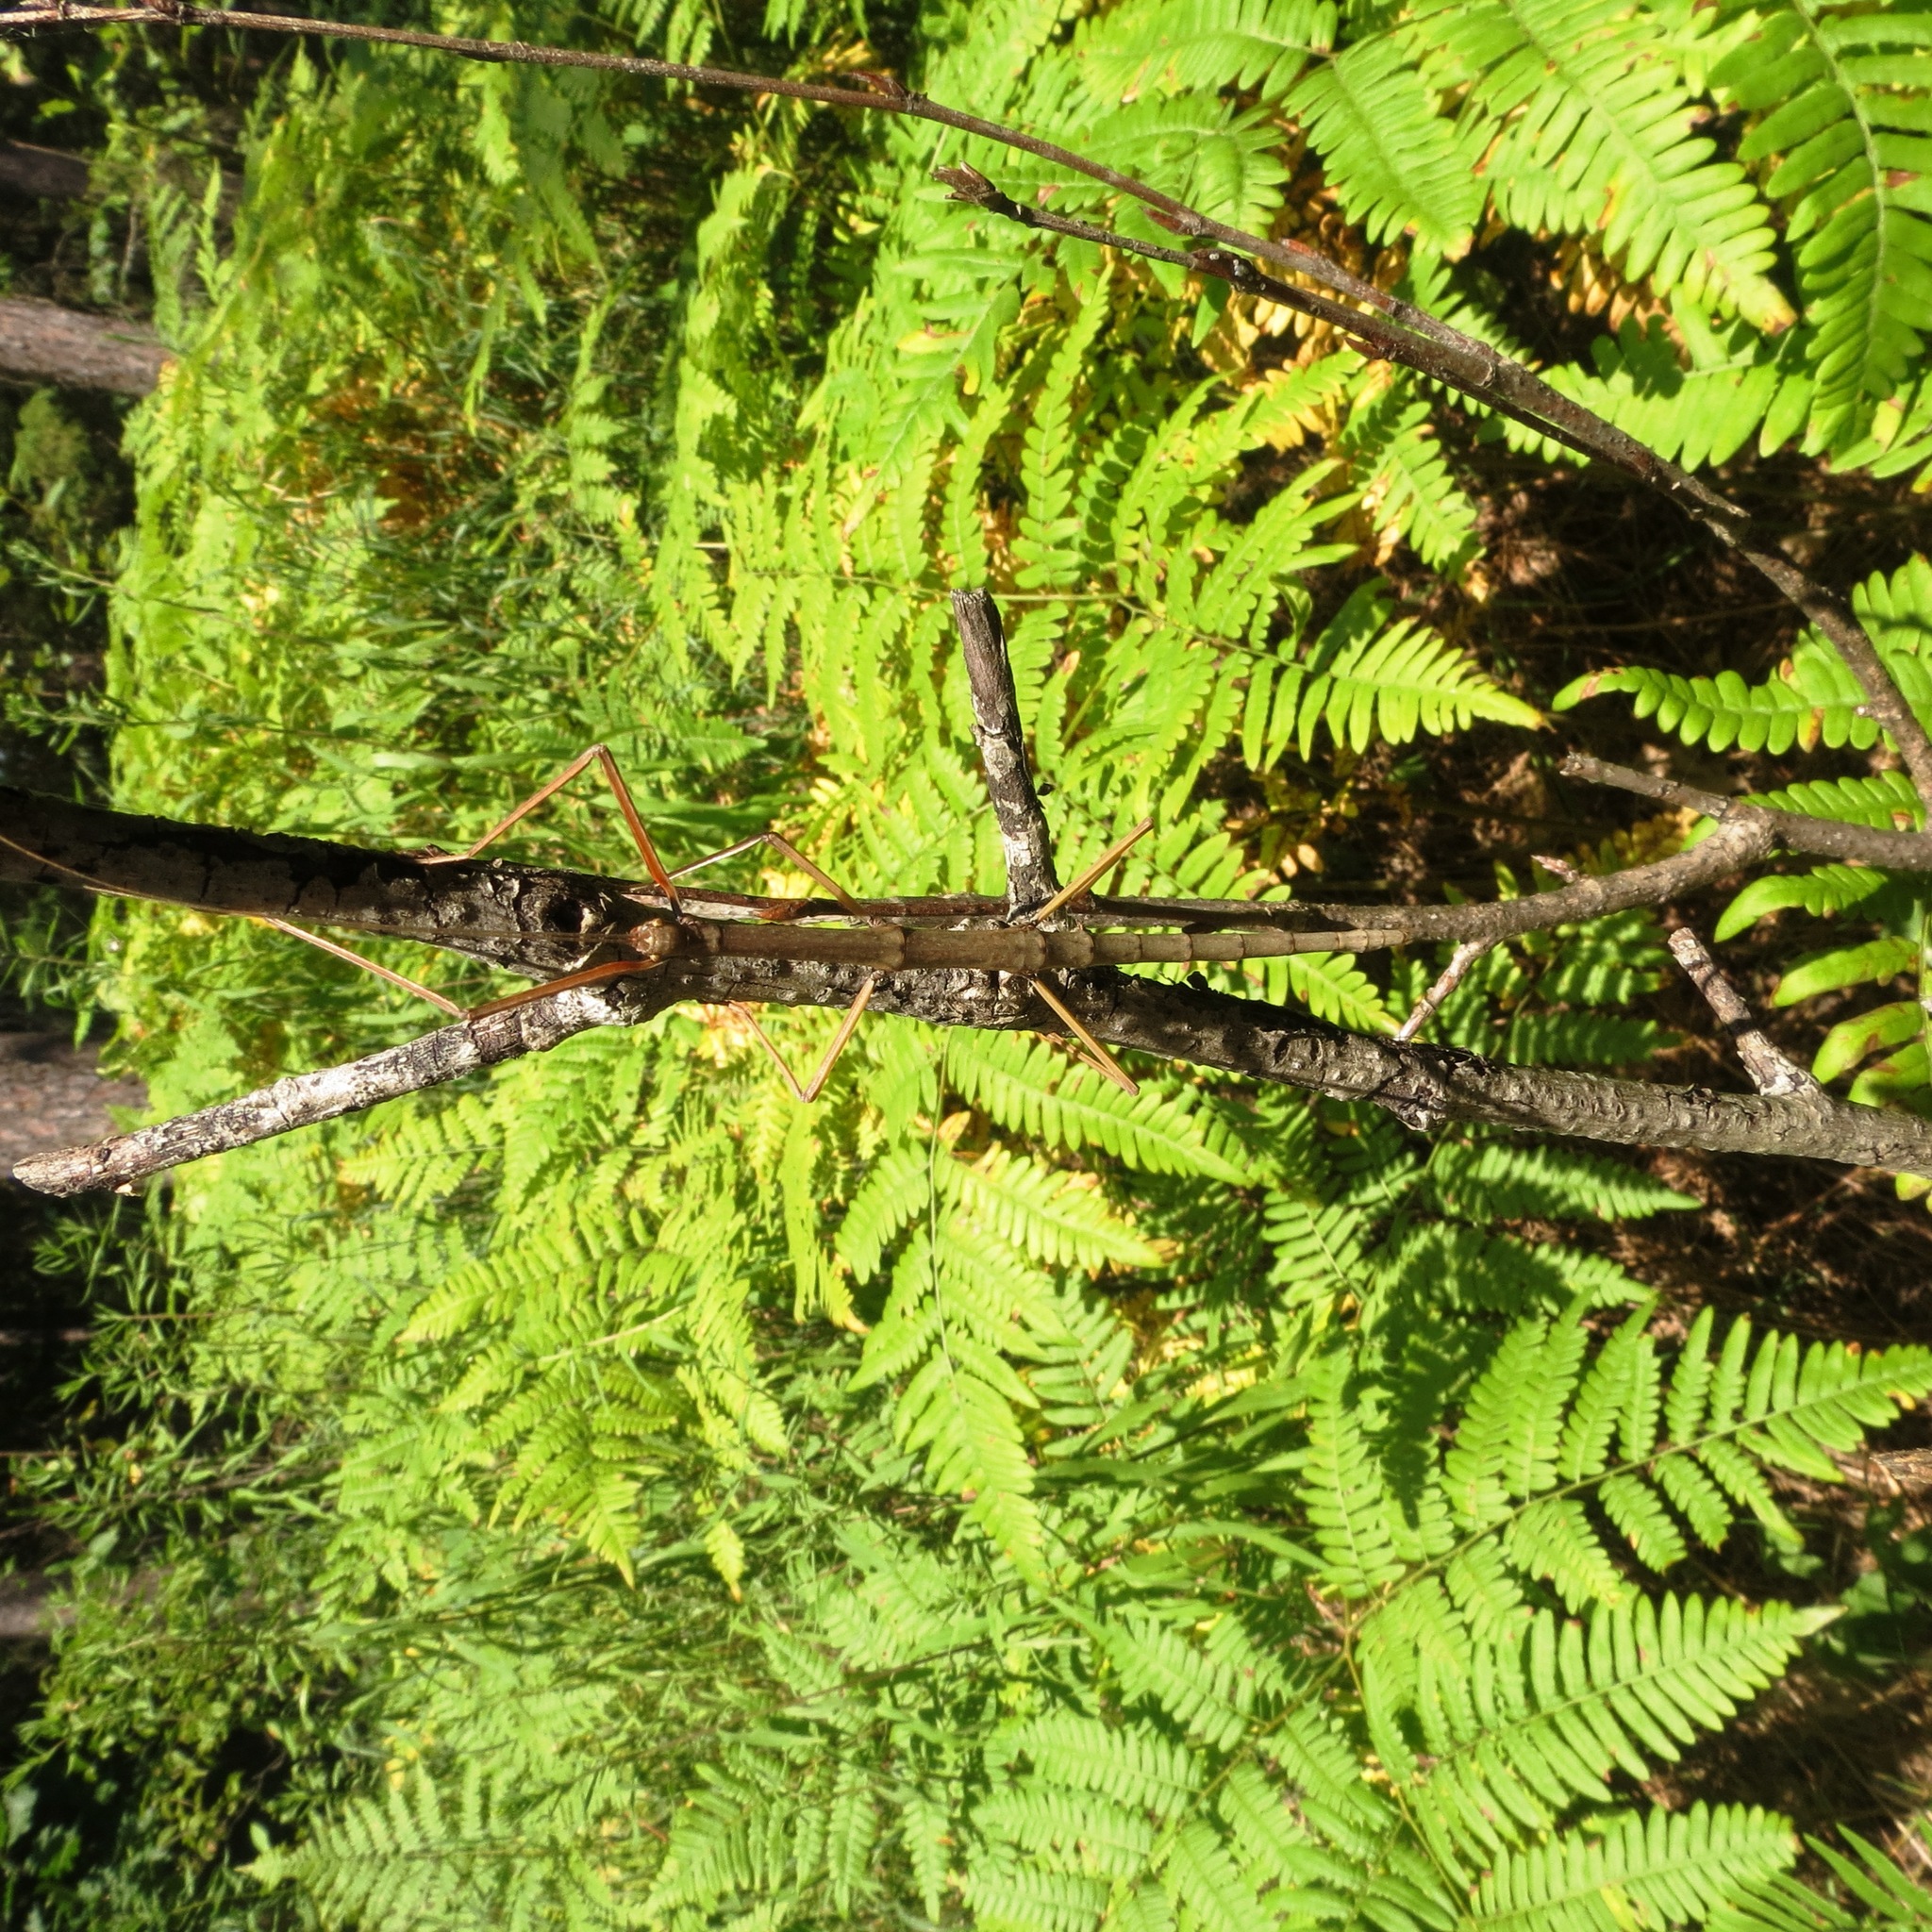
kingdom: Animalia
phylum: Arthropoda
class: Insecta
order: Phasmida
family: Diapheromeridae
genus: Diapheromera
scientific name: Diapheromera femorata
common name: Common american walkingstick
